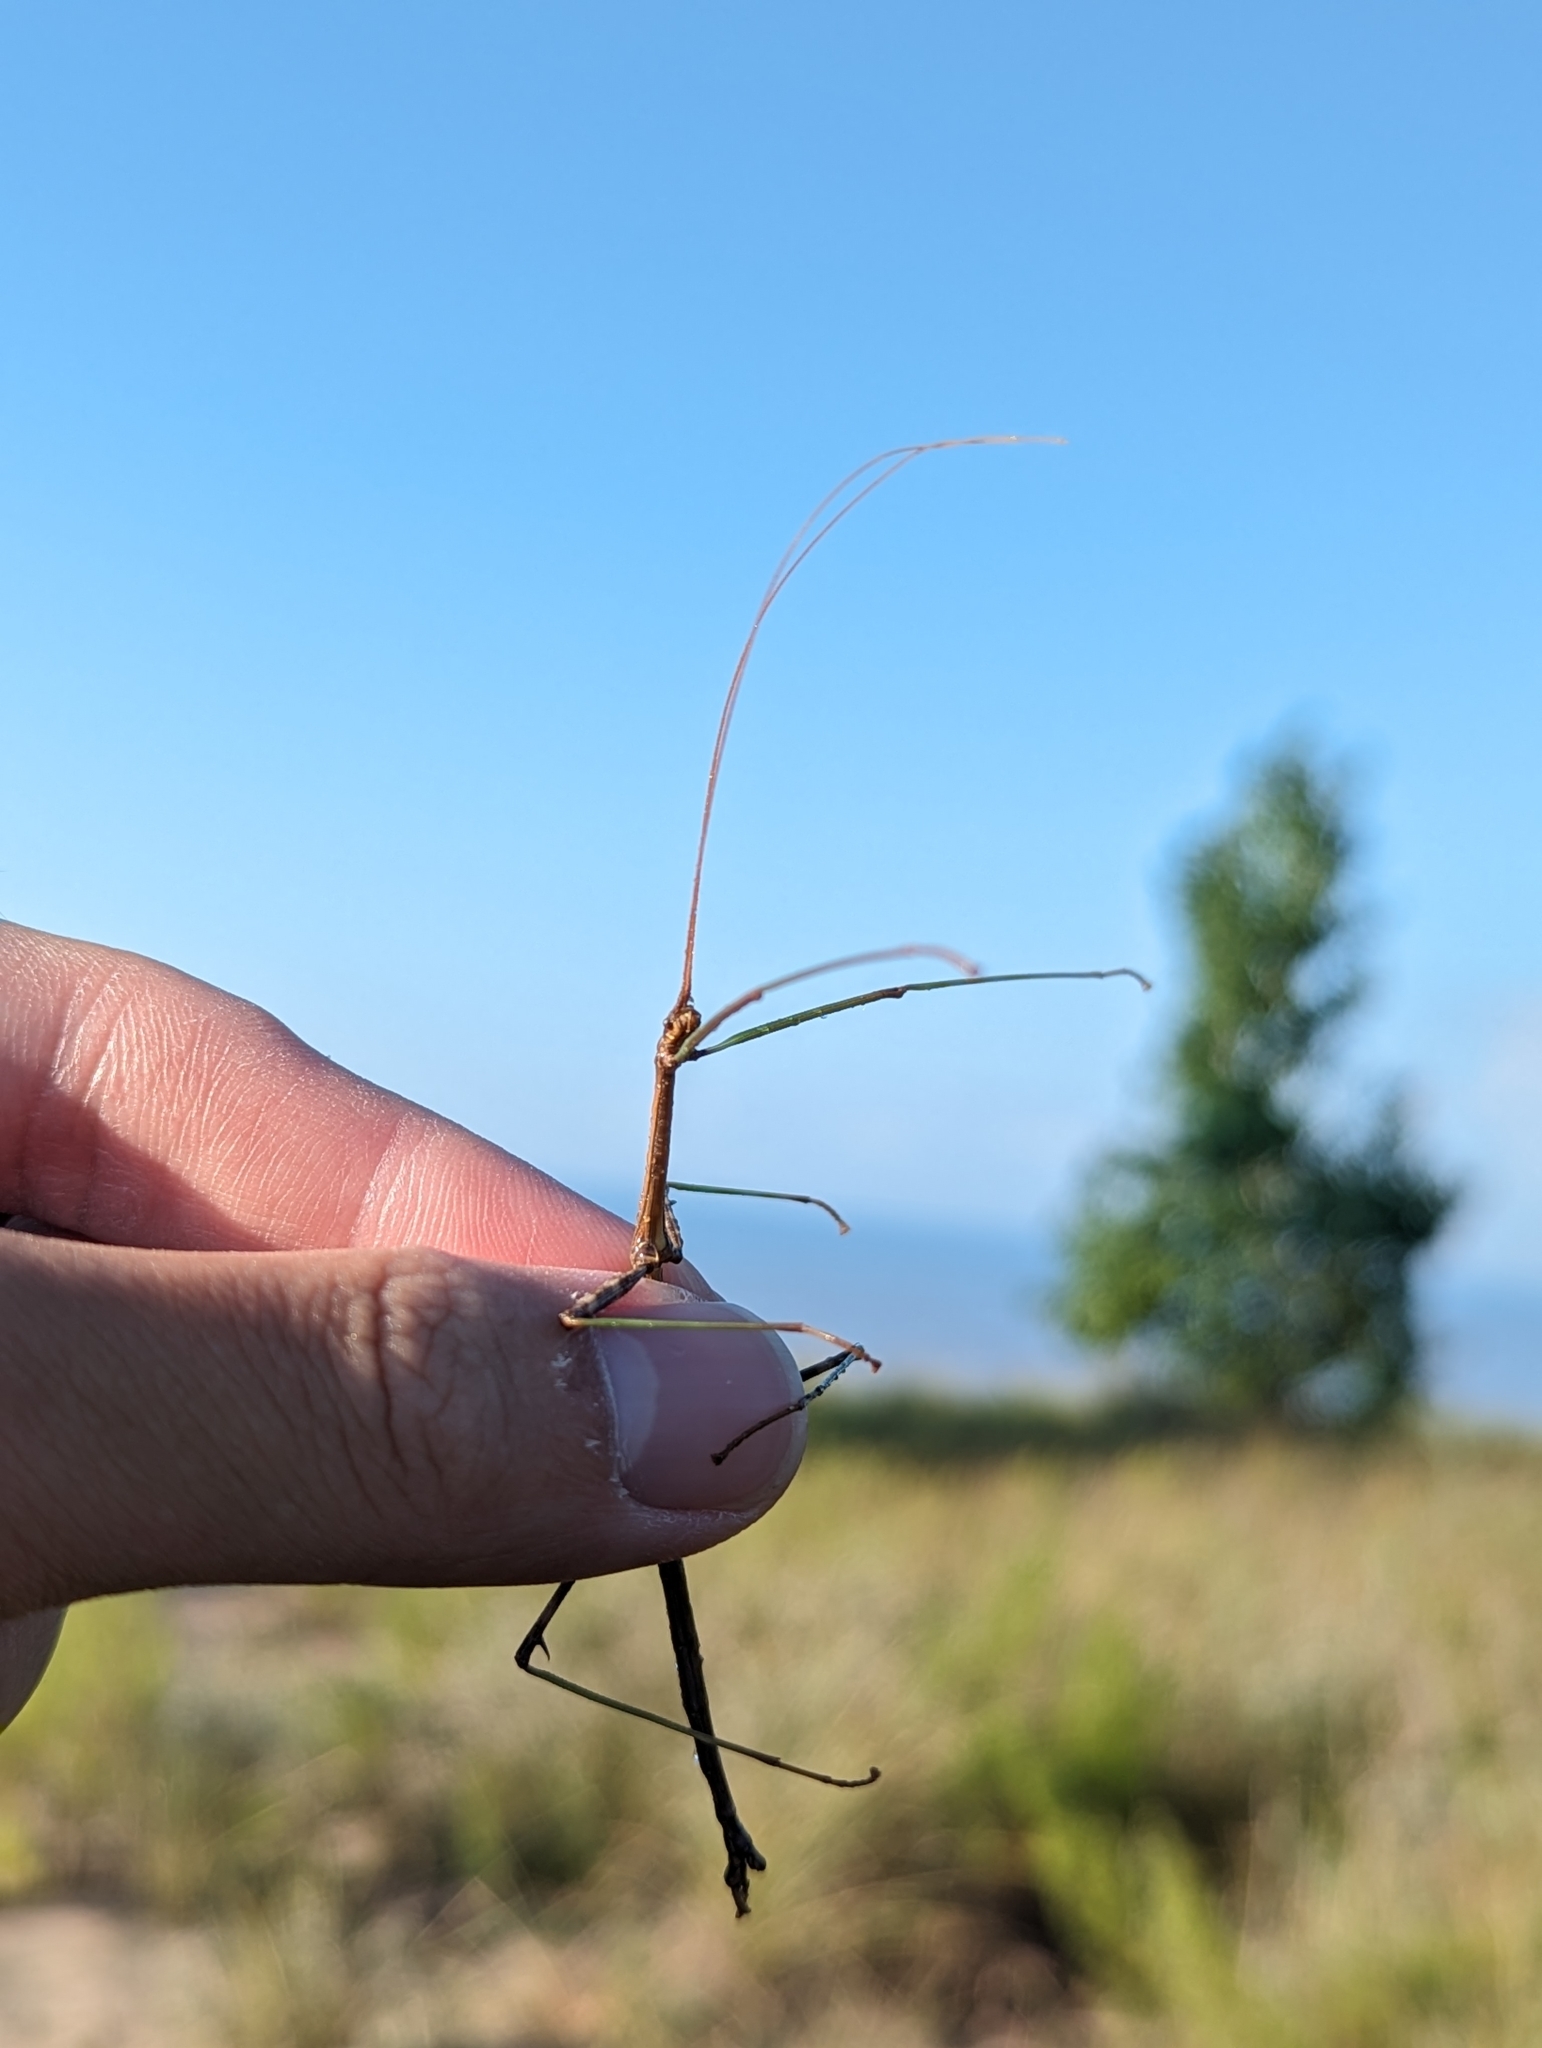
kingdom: Animalia
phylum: Arthropoda
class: Insecta
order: Phasmida
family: Diapheromeridae
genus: Diapheromera
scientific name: Diapheromera femorata
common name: Common american walkingstick
